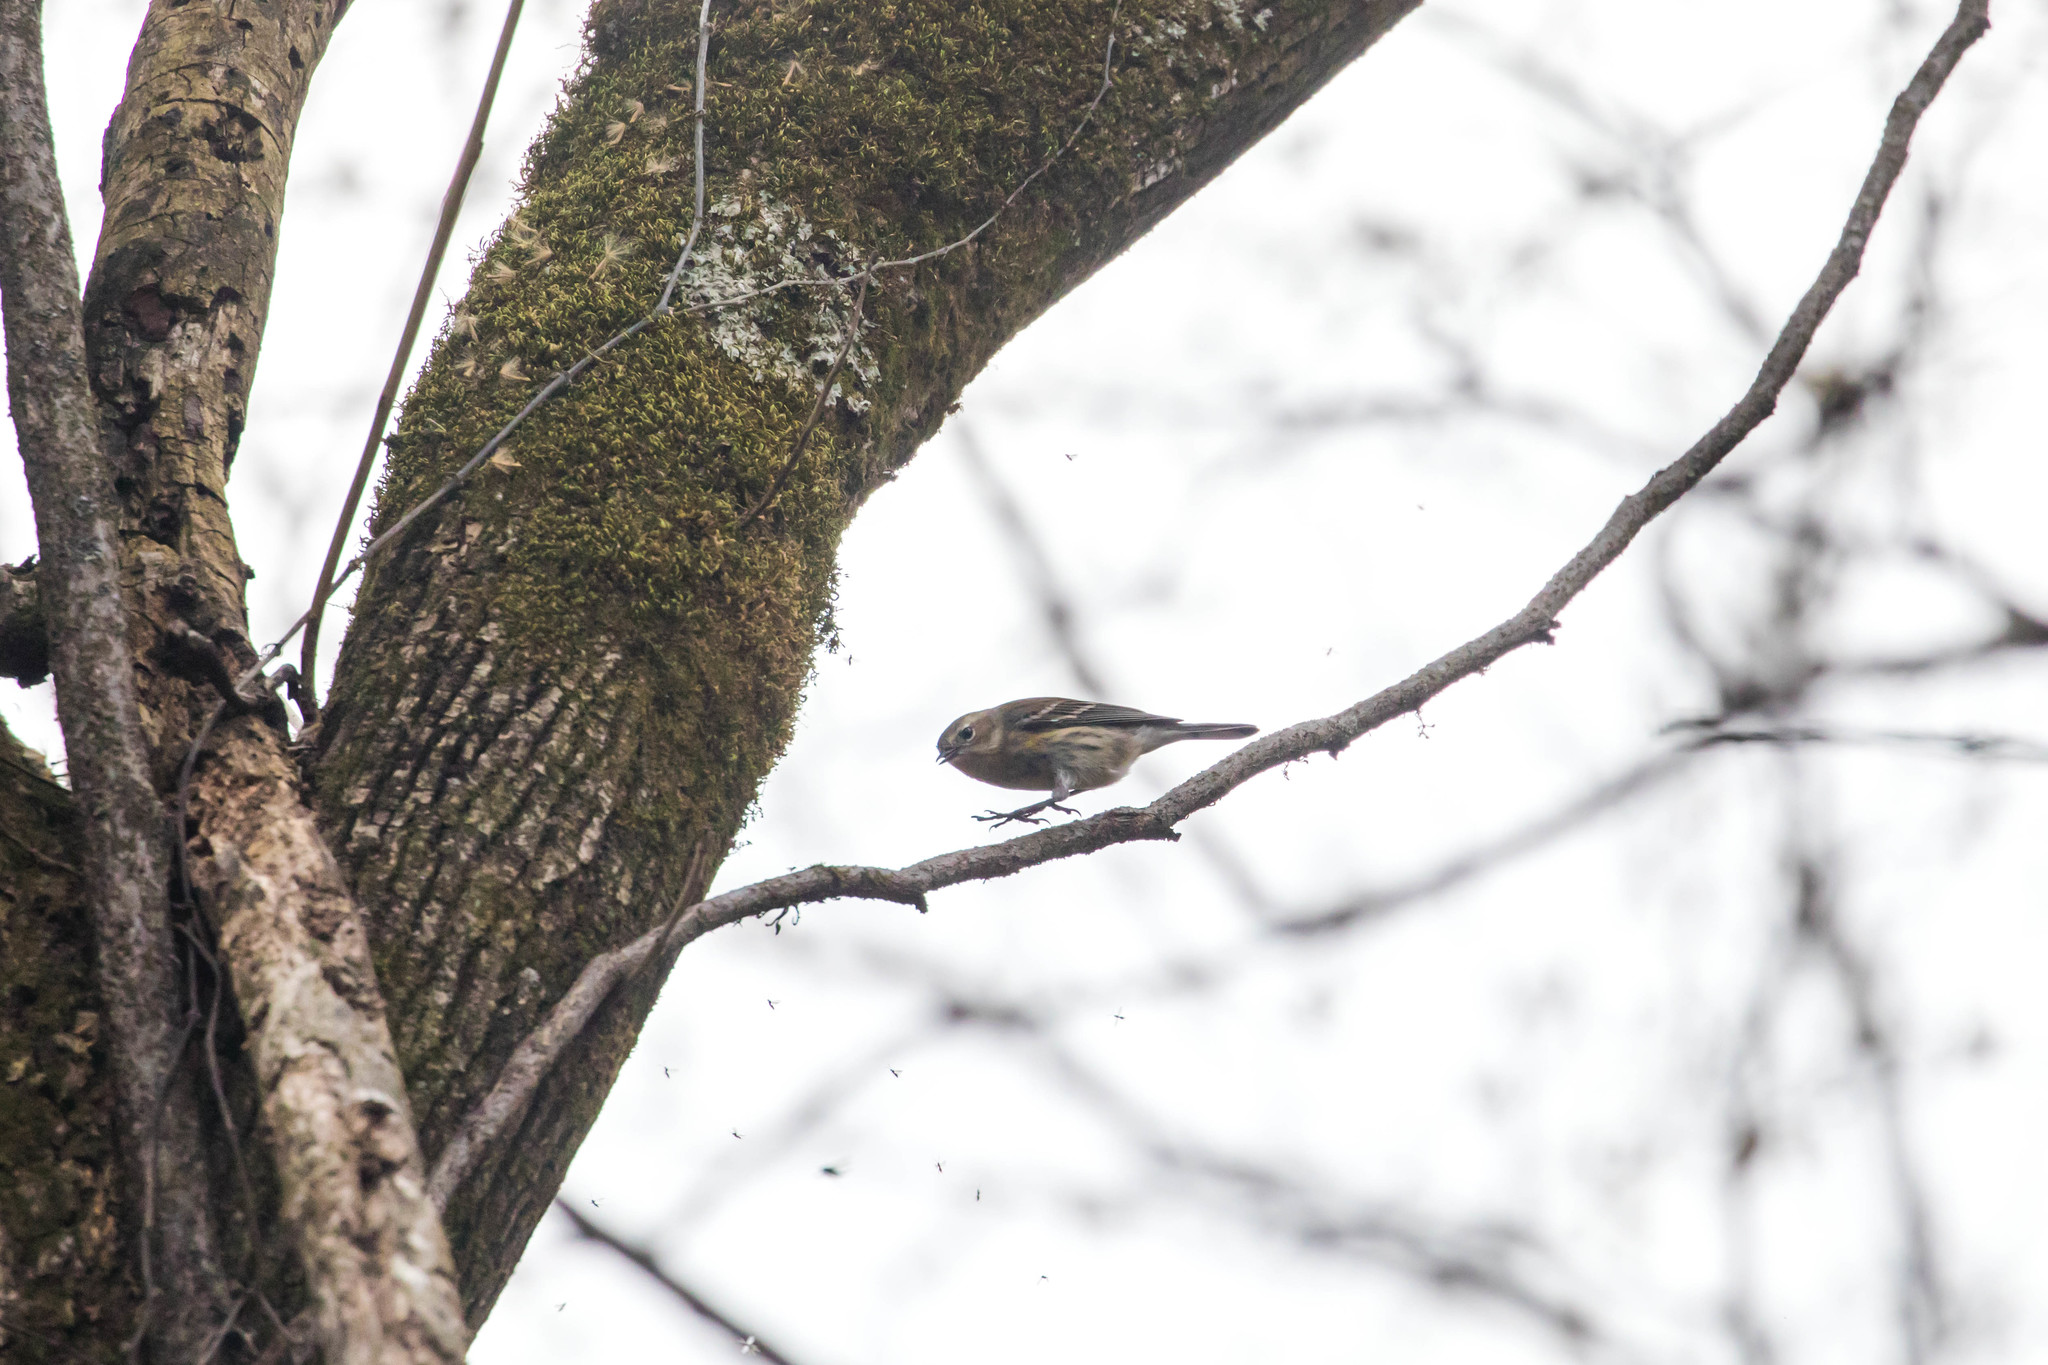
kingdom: Animalia
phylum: Chordata
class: Aves
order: Passeriformes
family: Parulidae
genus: Setophaga
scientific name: Setophaga coronata
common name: Myrtle warbler
